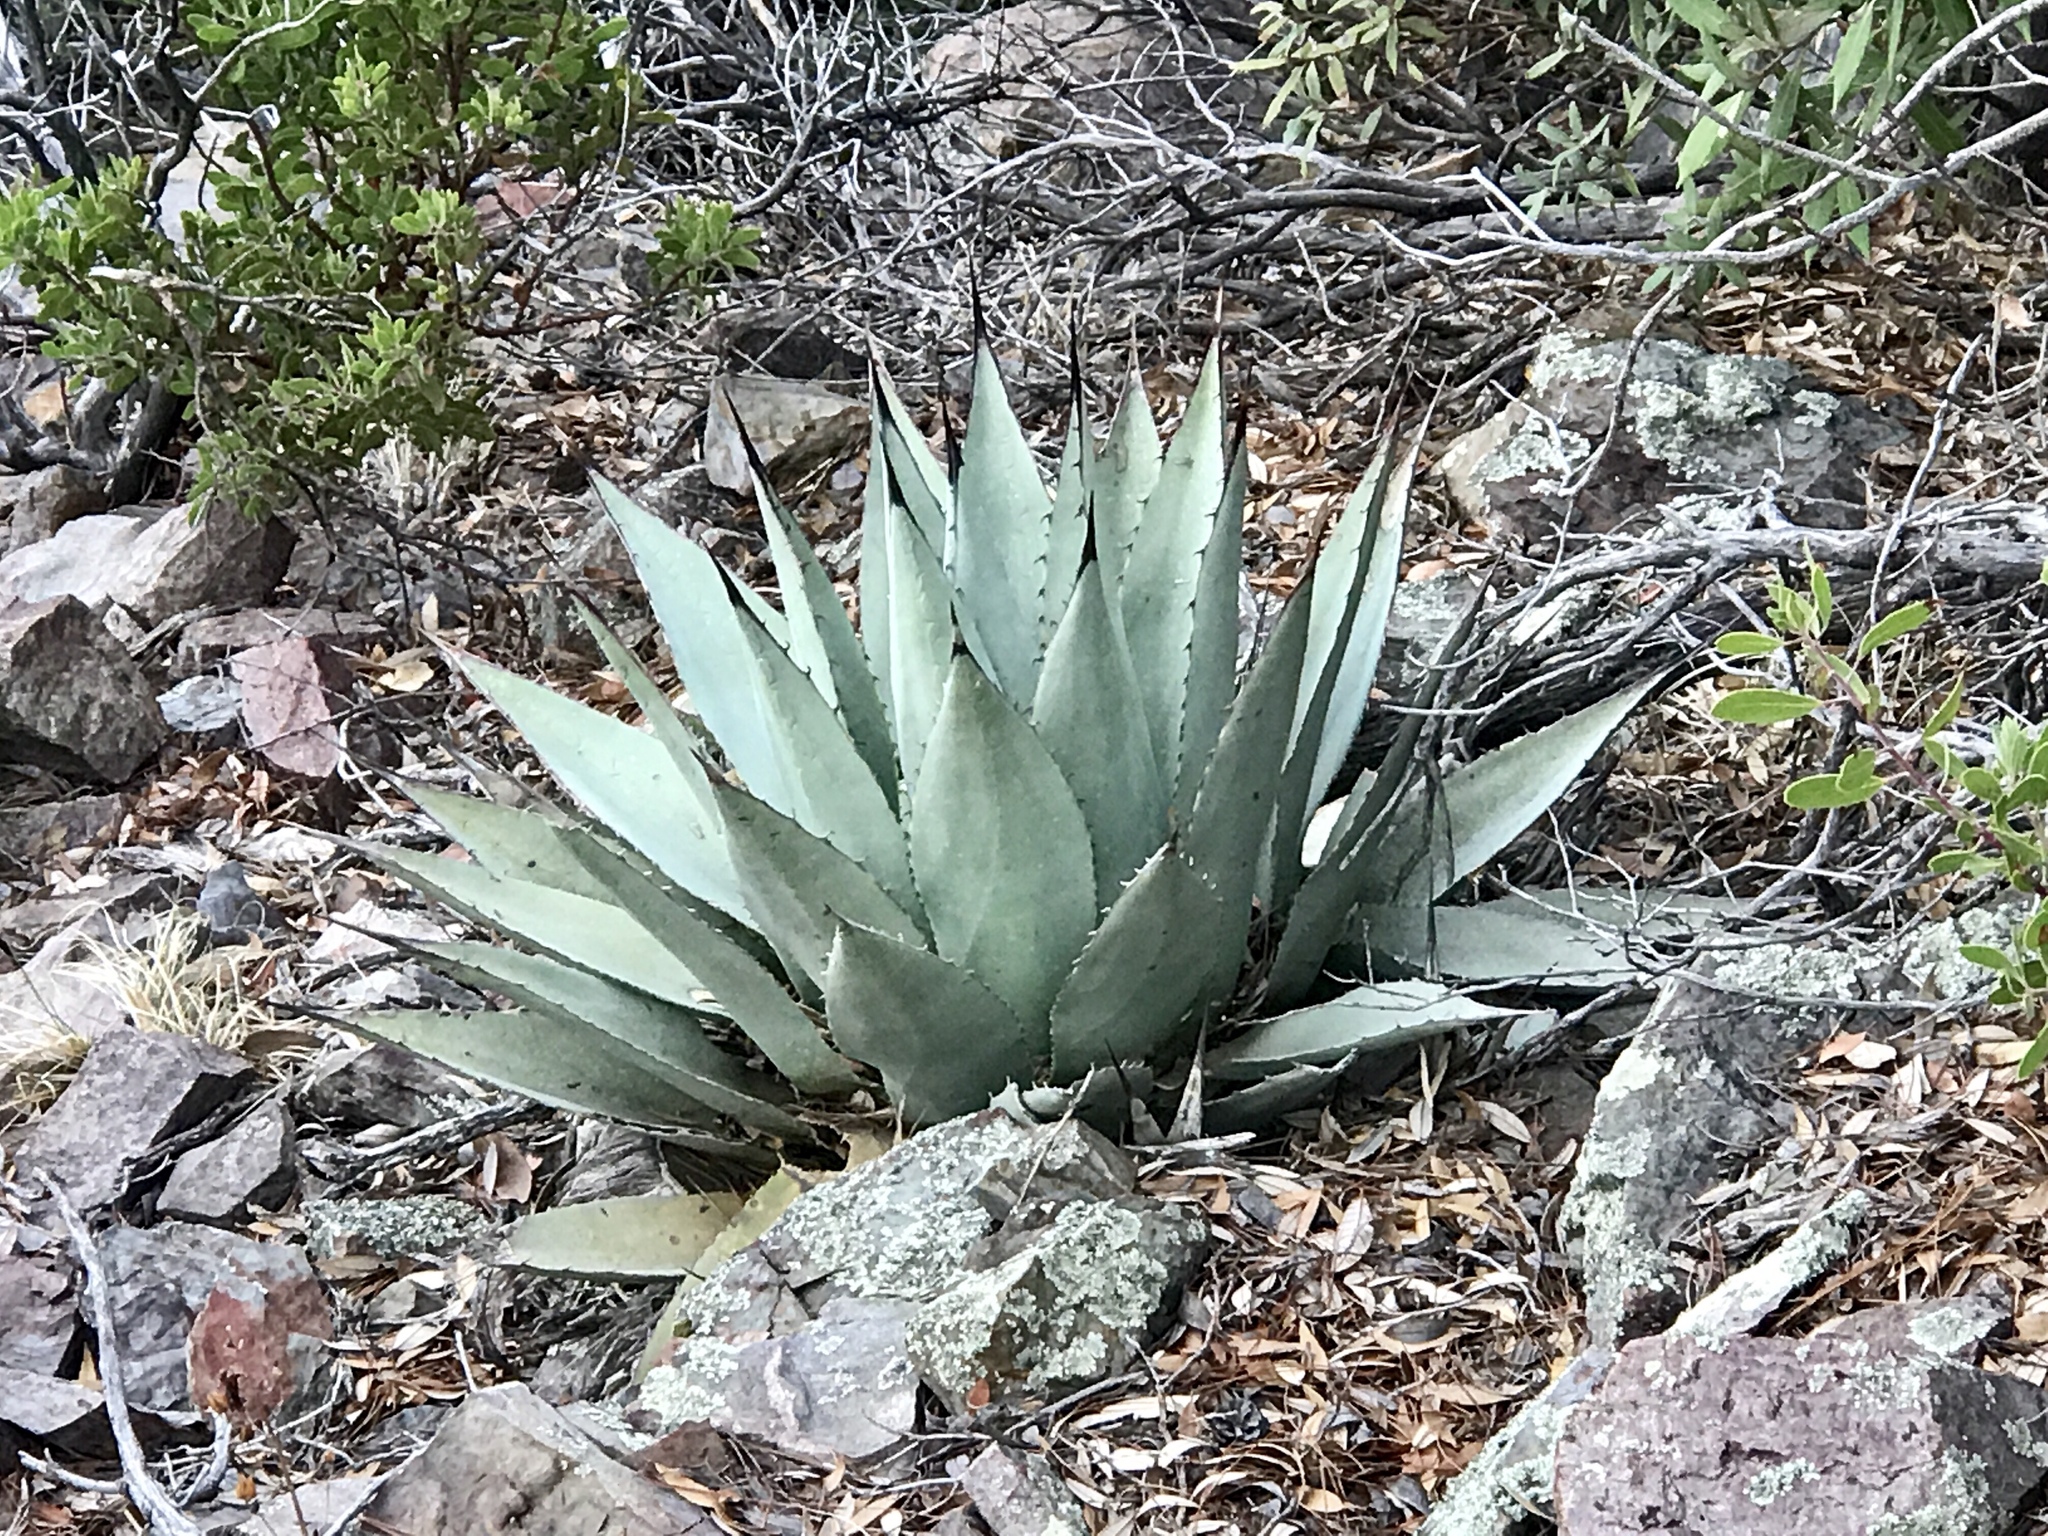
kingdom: Plantae
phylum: Tracheophyta
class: Liliopsida
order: Asparagales
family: Asparagaceae
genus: Agave
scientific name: Agave parryi
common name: Parry's agave
